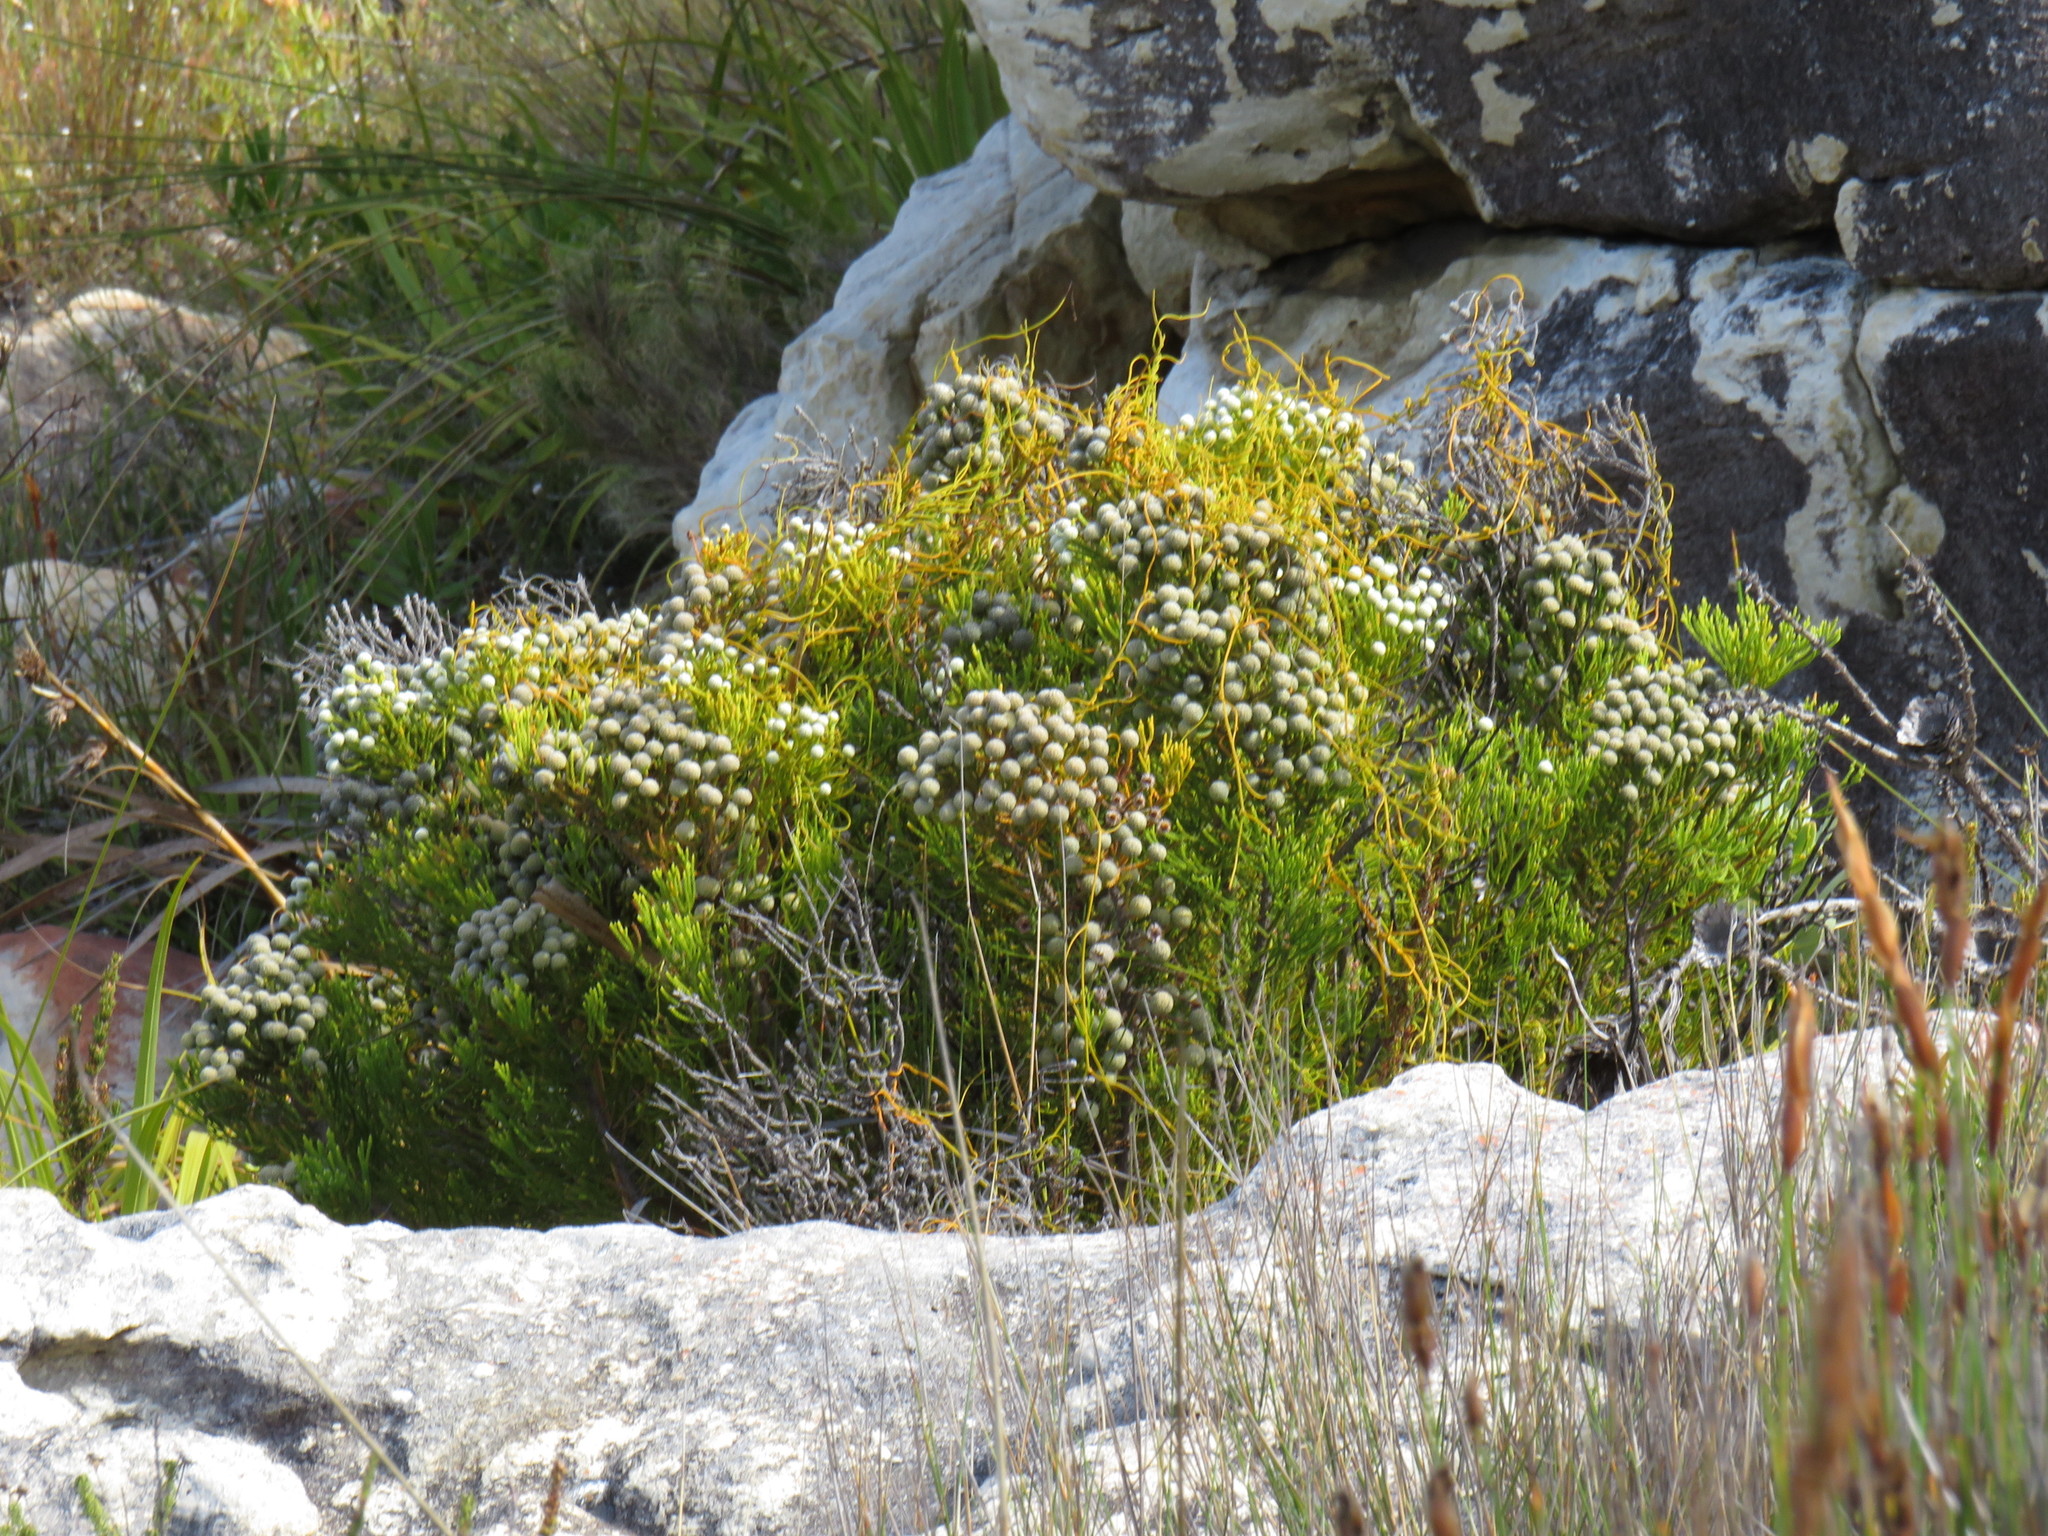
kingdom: Plantae
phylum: Tracheophyta
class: Magnoliopsida
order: Bruniales
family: Bruniaceae
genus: Brunia
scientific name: Brunia noduliflora
